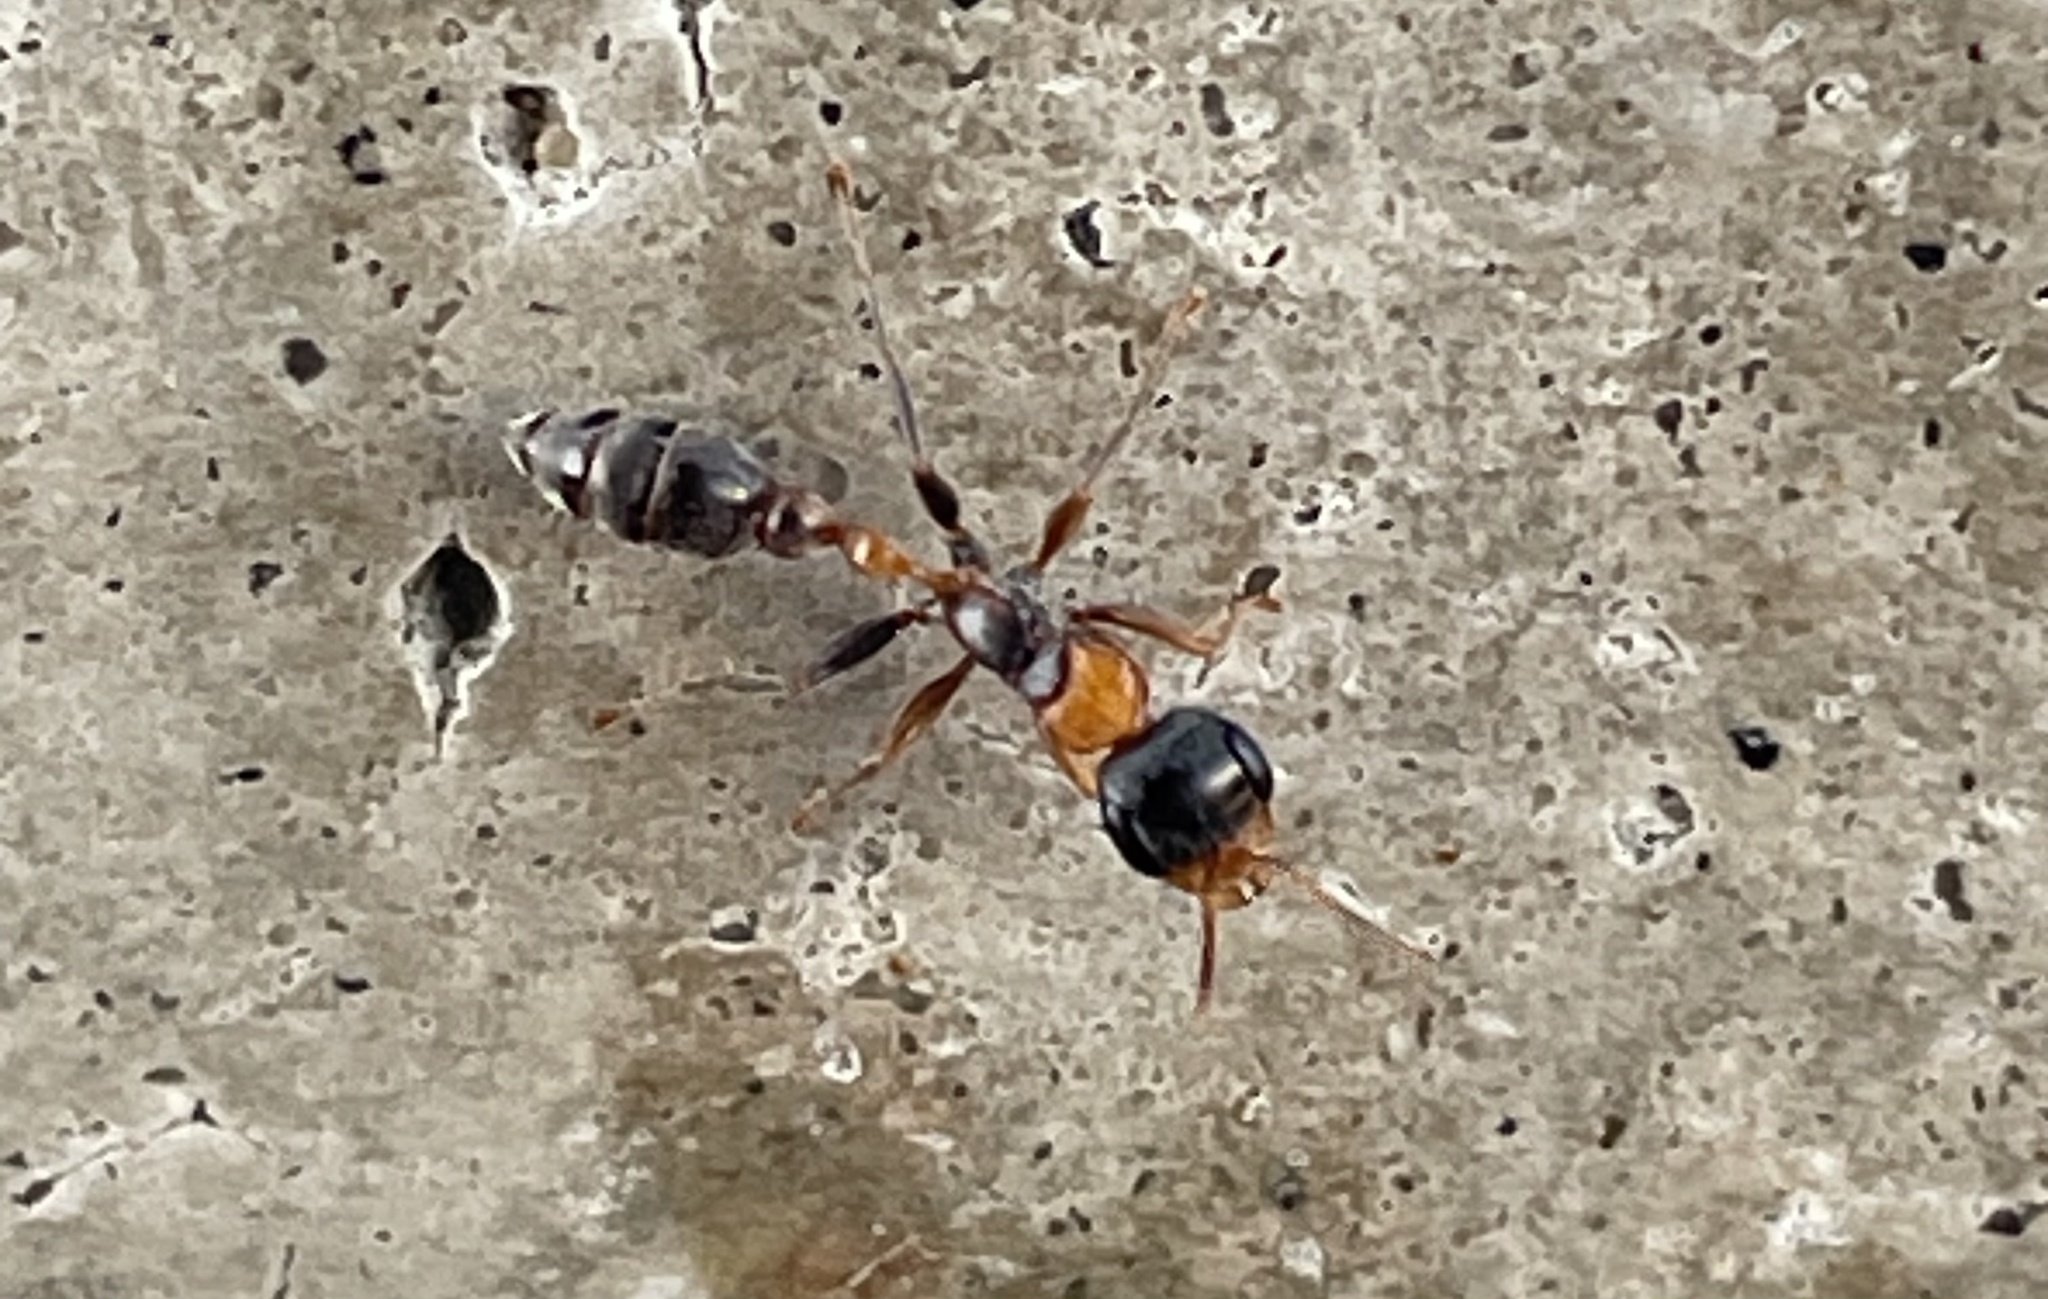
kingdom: Animalia
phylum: Arthropoda
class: Insecta
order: Hymenoptera
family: Formicidae
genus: Pseudomyrmex
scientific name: Pseudomyrmex gracilis
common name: Graceful twig ant
